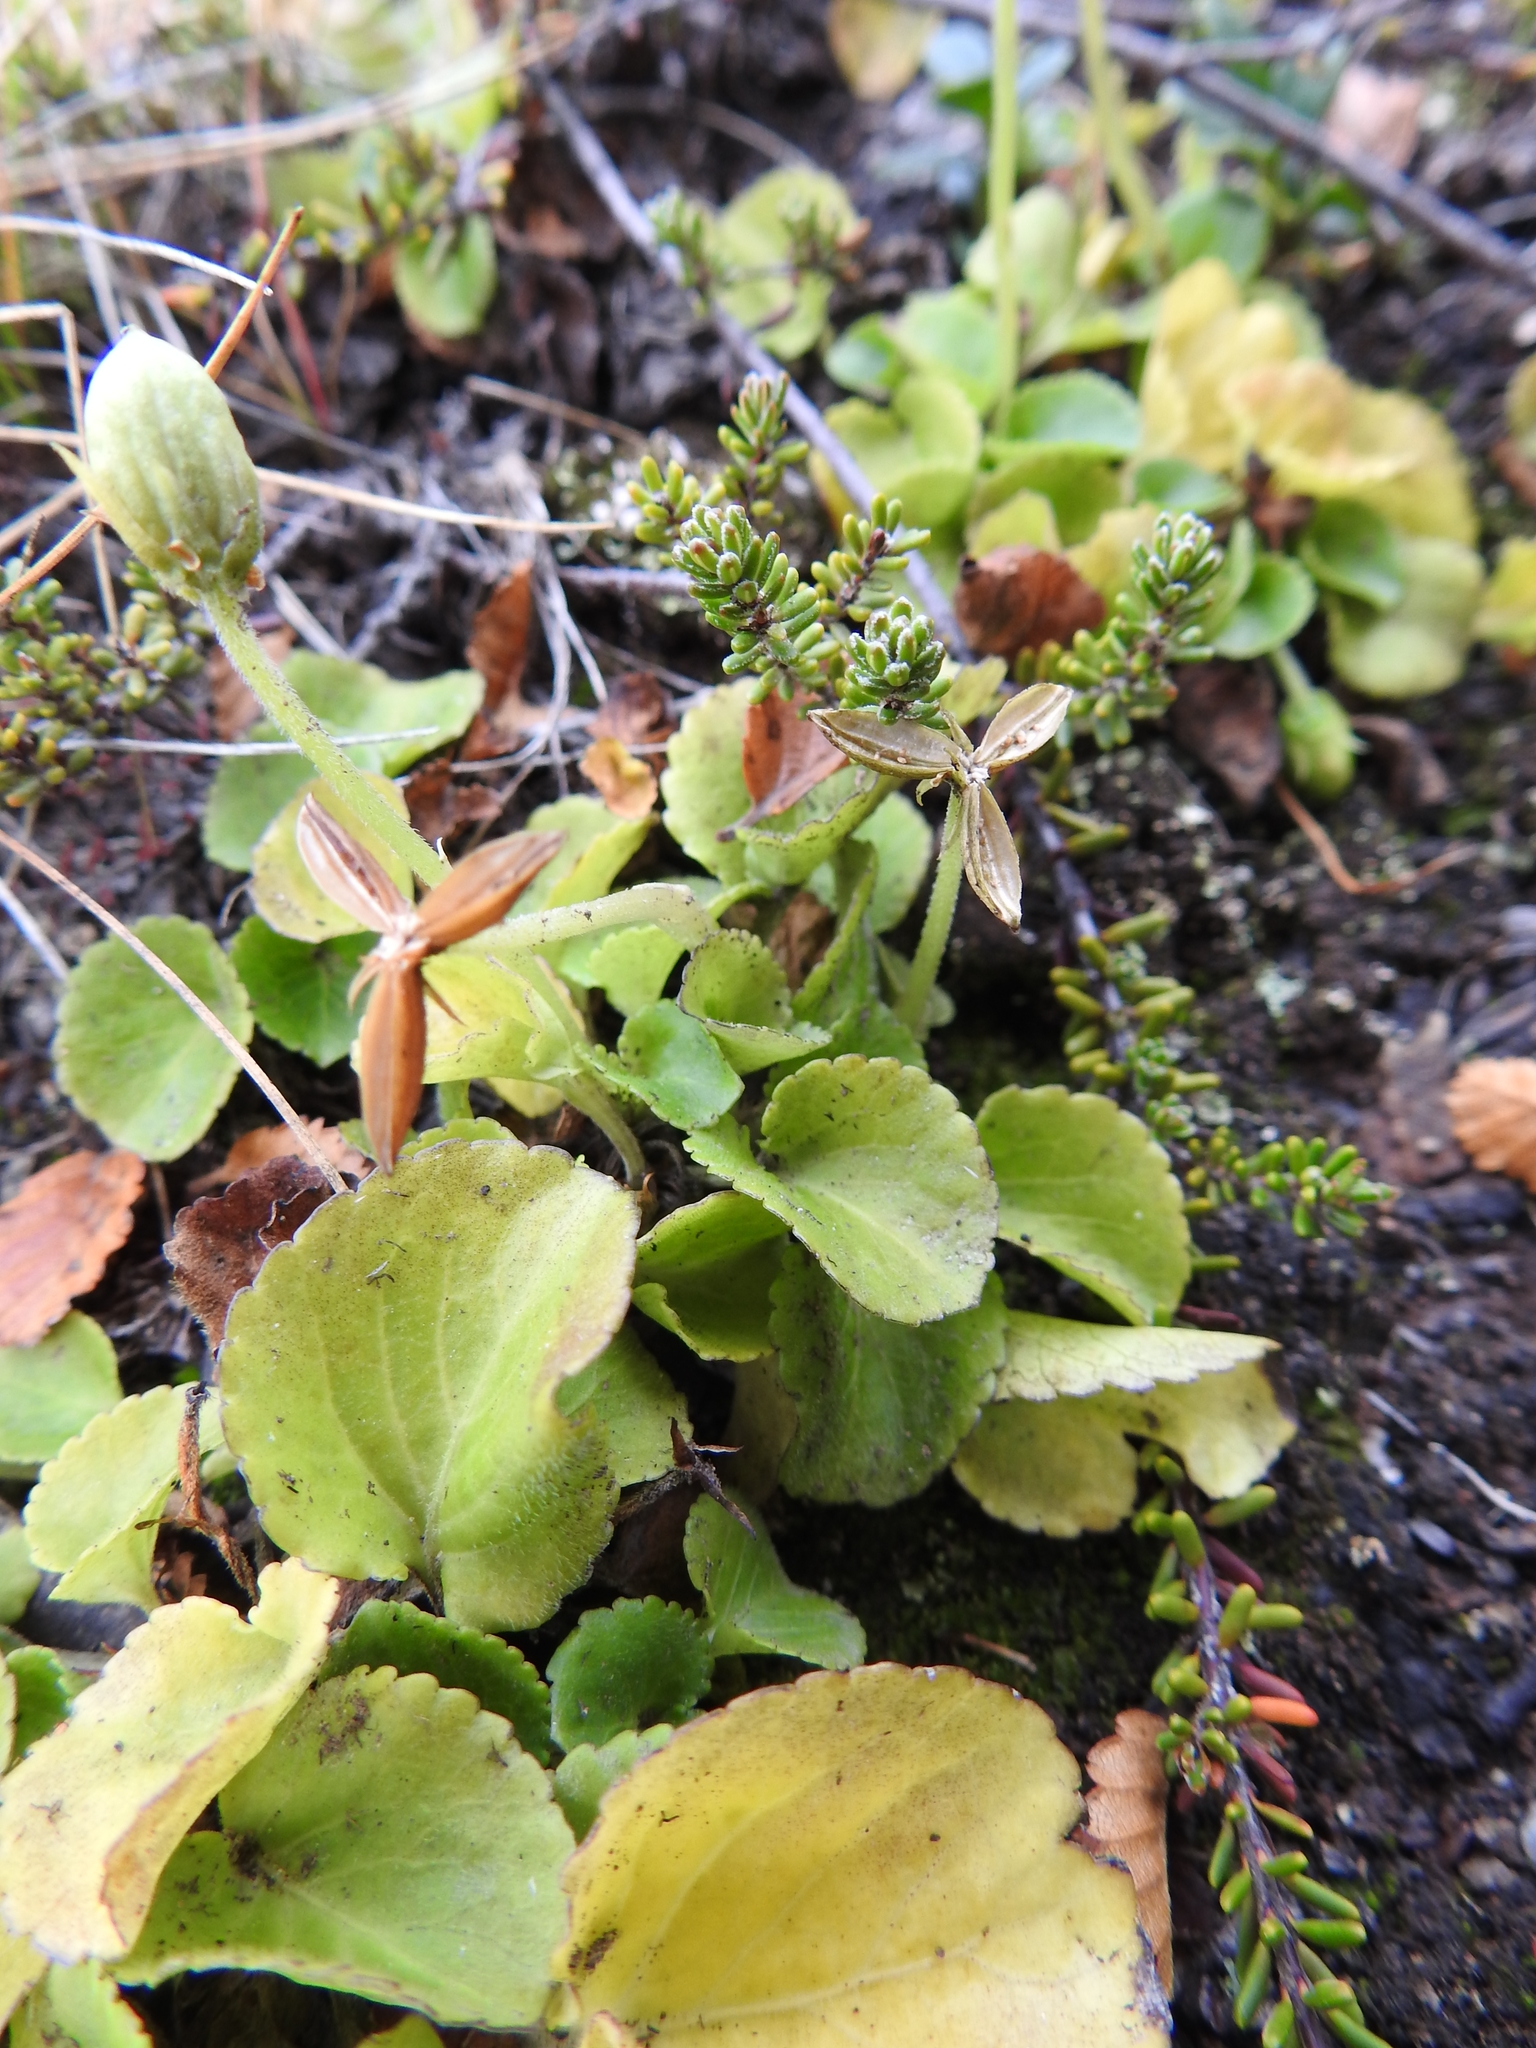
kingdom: Plantae
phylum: Tracheophyta
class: Magnoliopsida
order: Malpighiales
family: Violaceae
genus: Viola
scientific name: Viola reichei
